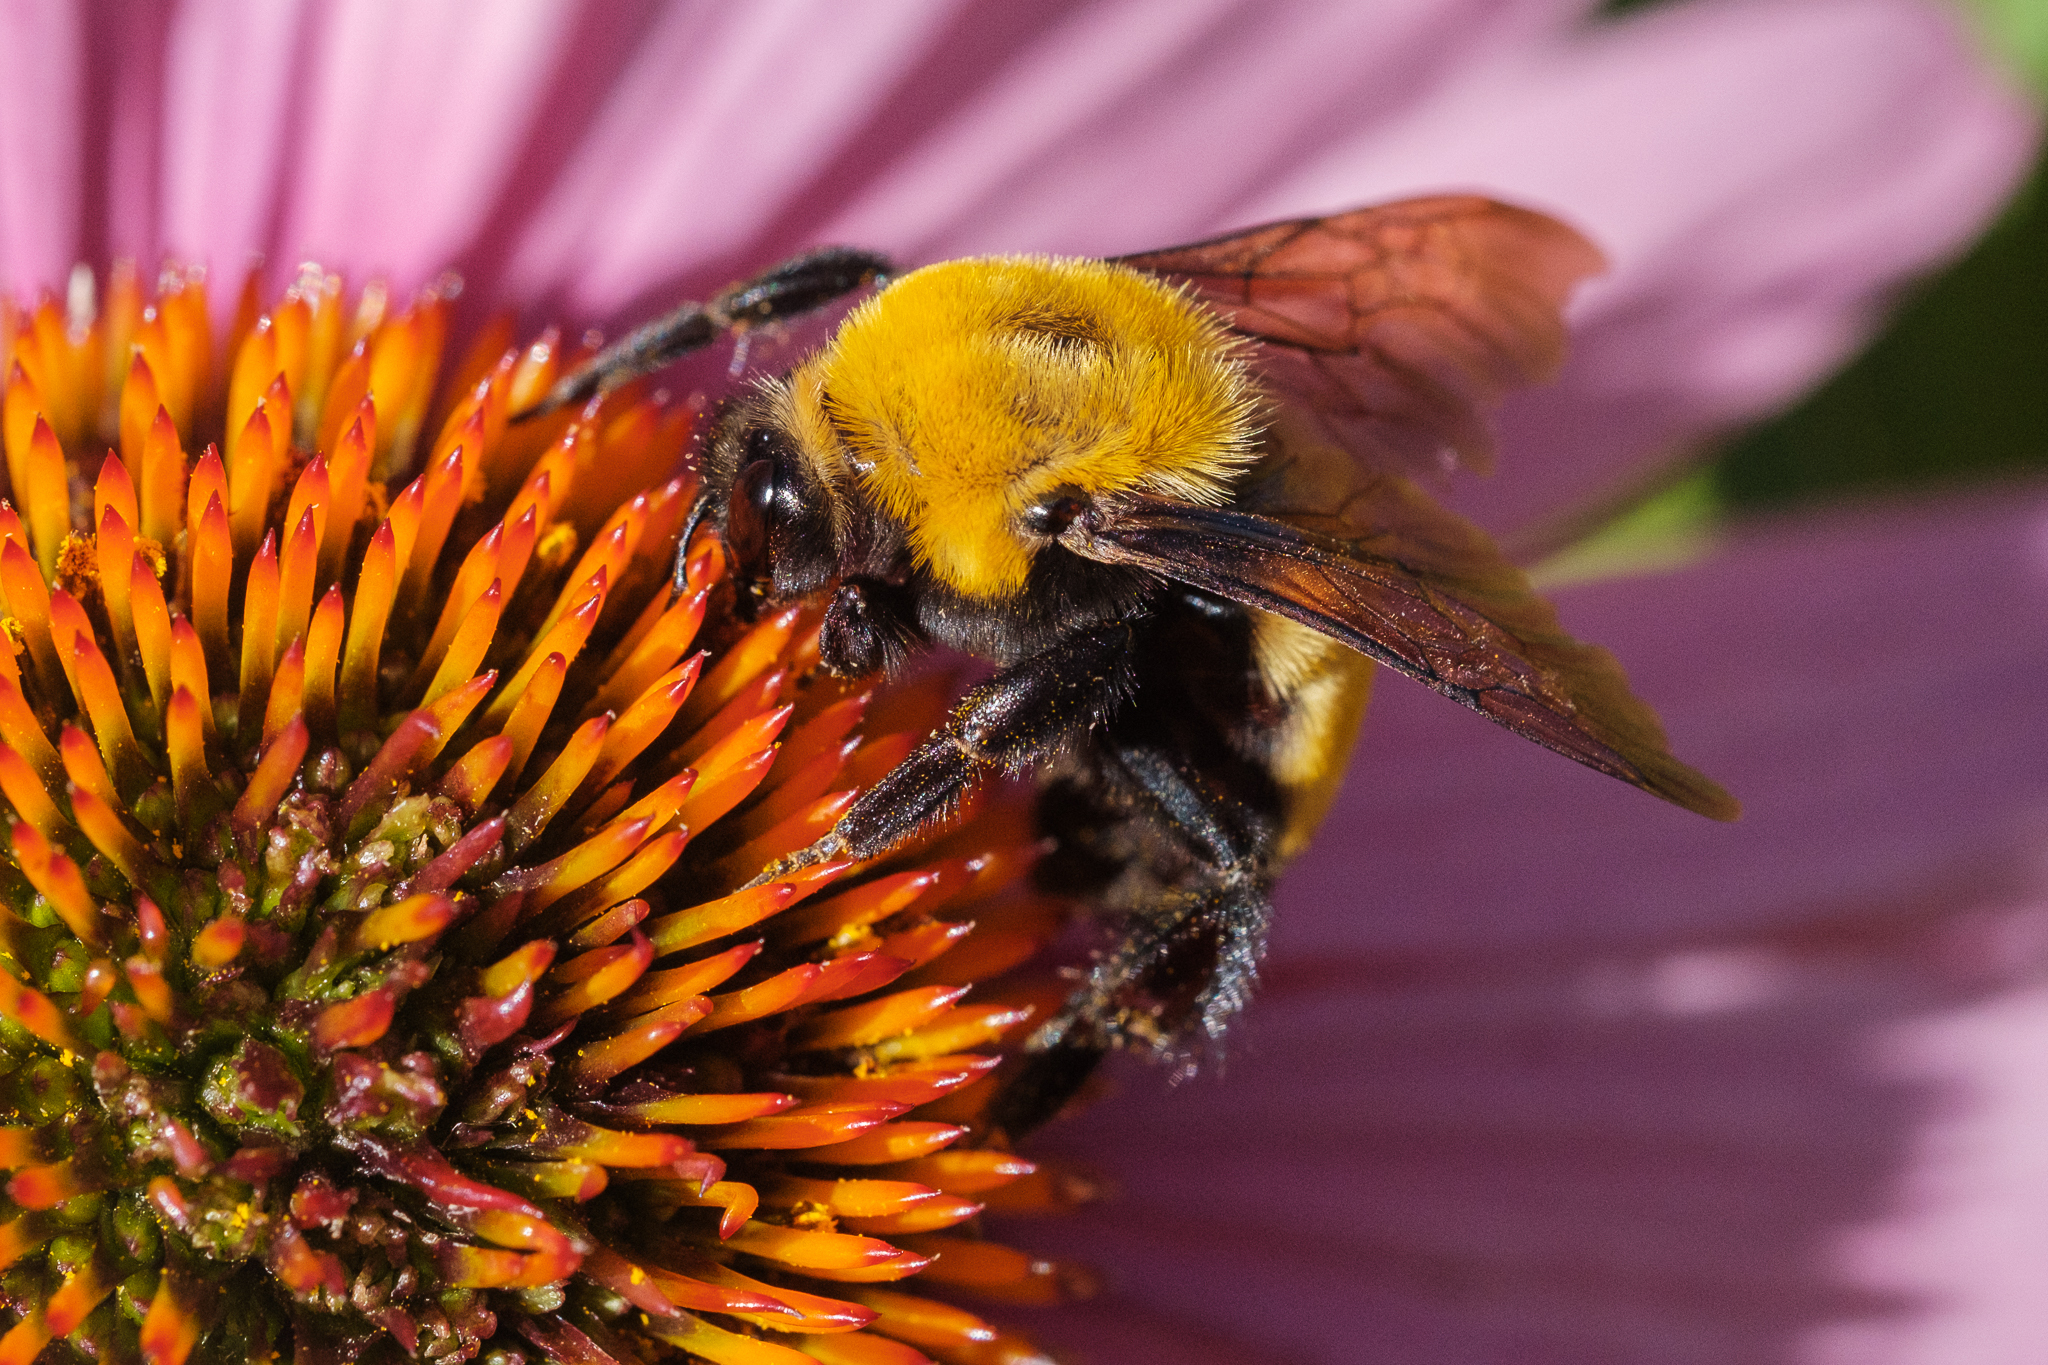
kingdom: Animalia
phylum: Arthropoda
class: Insecta
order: Hymenoptera
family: Apidae
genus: Bombus
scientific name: Bombus morrisoni
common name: Morrison bumble bee
